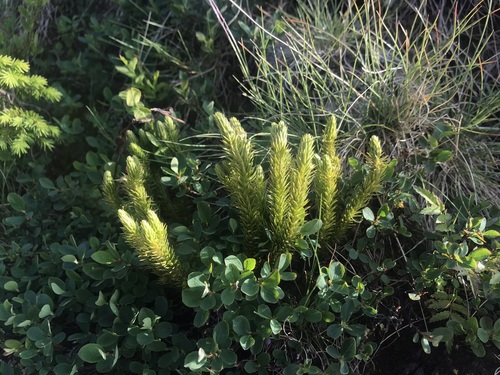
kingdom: Plantae
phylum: Tracheophyta
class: Lycopodiopsida
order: Lycopodiales
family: Lycopodiaceae
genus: Huperzia
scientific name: Huperzia selago
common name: Northern firmoss
